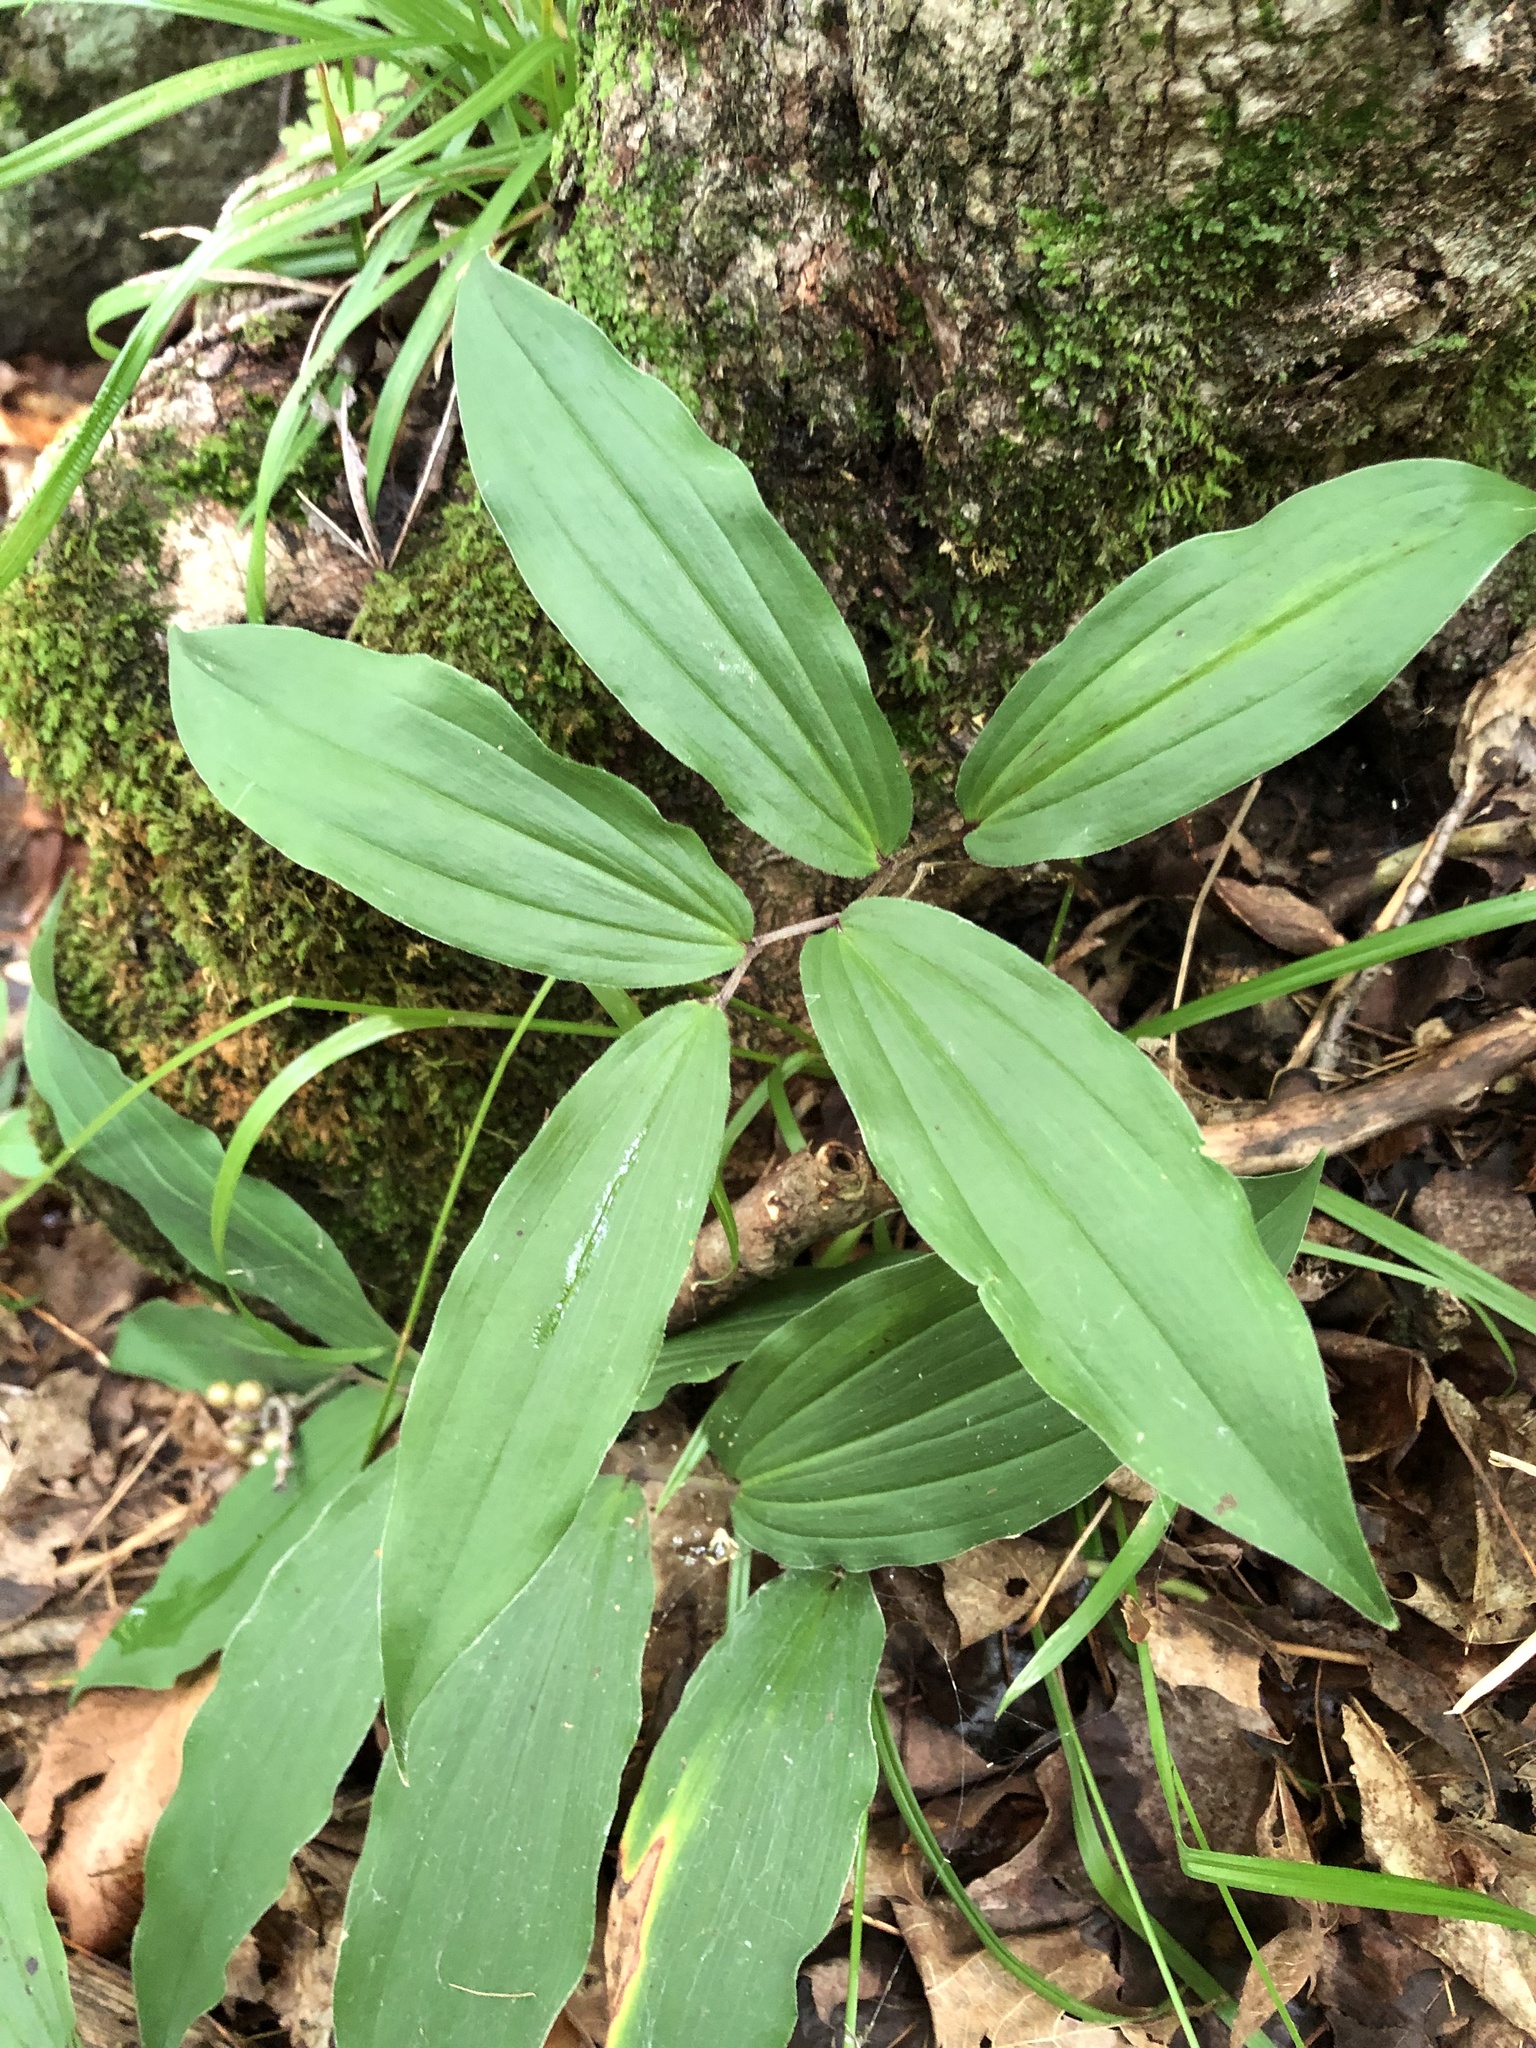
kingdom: Plantae
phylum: Tracheophyta
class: Liliopsida
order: Asparagales
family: Asparagaceae
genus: Maianthemum
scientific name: Maianthemum racemosum
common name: False spikenard
